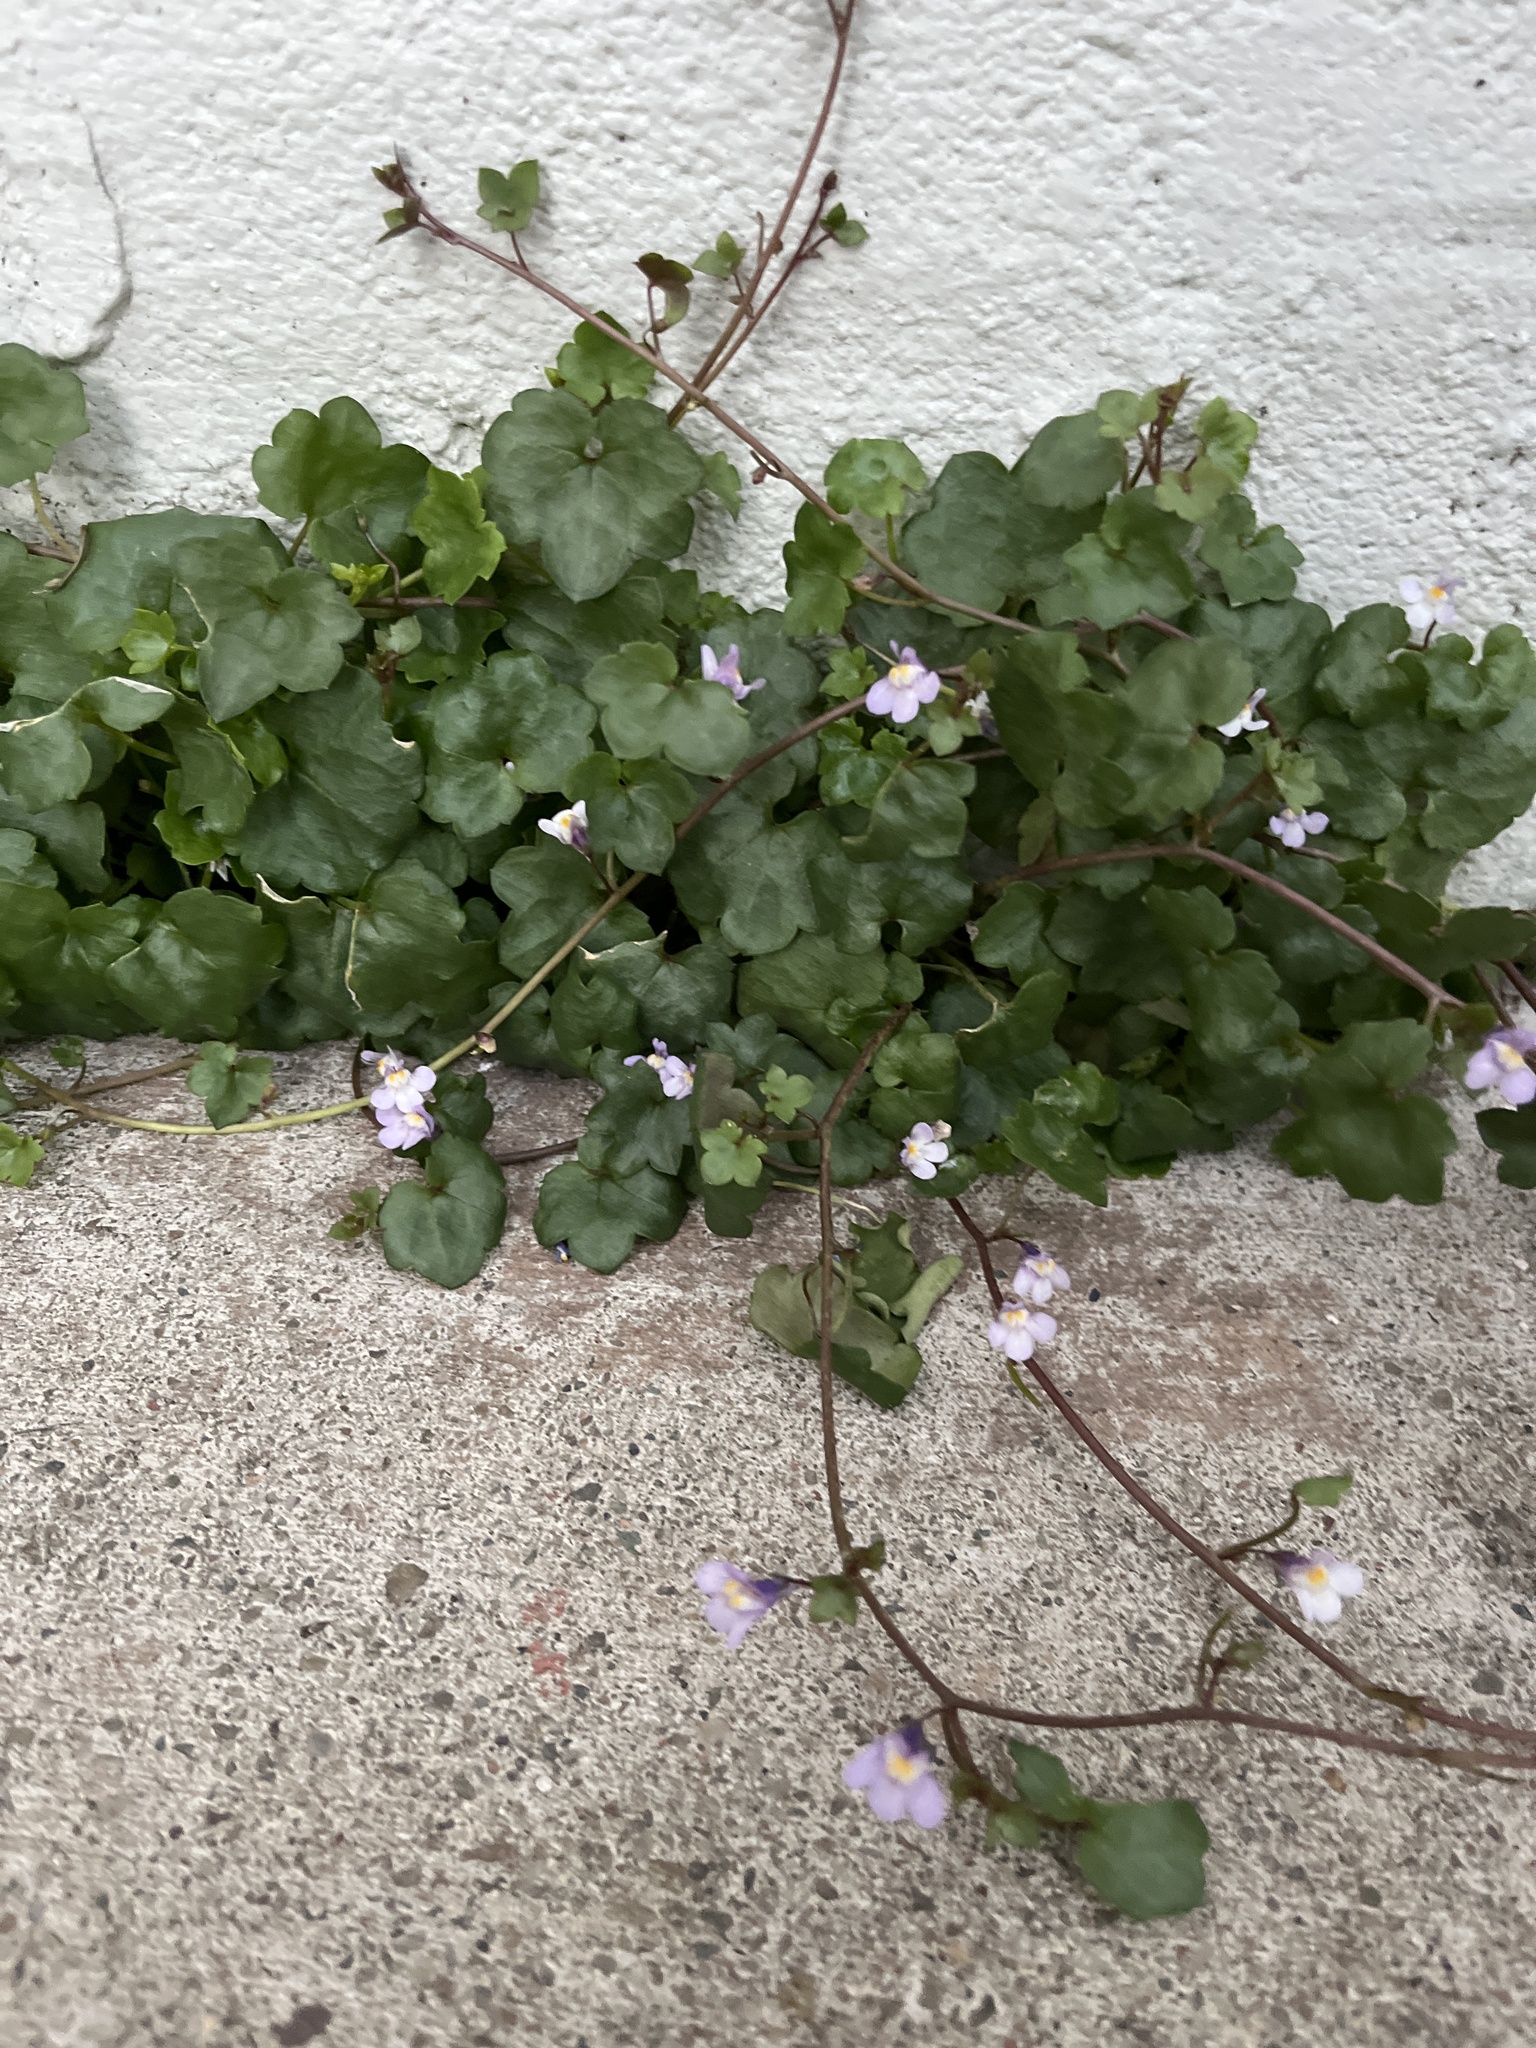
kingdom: Plantae
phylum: Tracheophyta
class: Magnoliopsida
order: Lamiales
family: Plantaginaceae
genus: Cymbalaria
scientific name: Cymbalaria muralis
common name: Ivy-leaved toadflax
